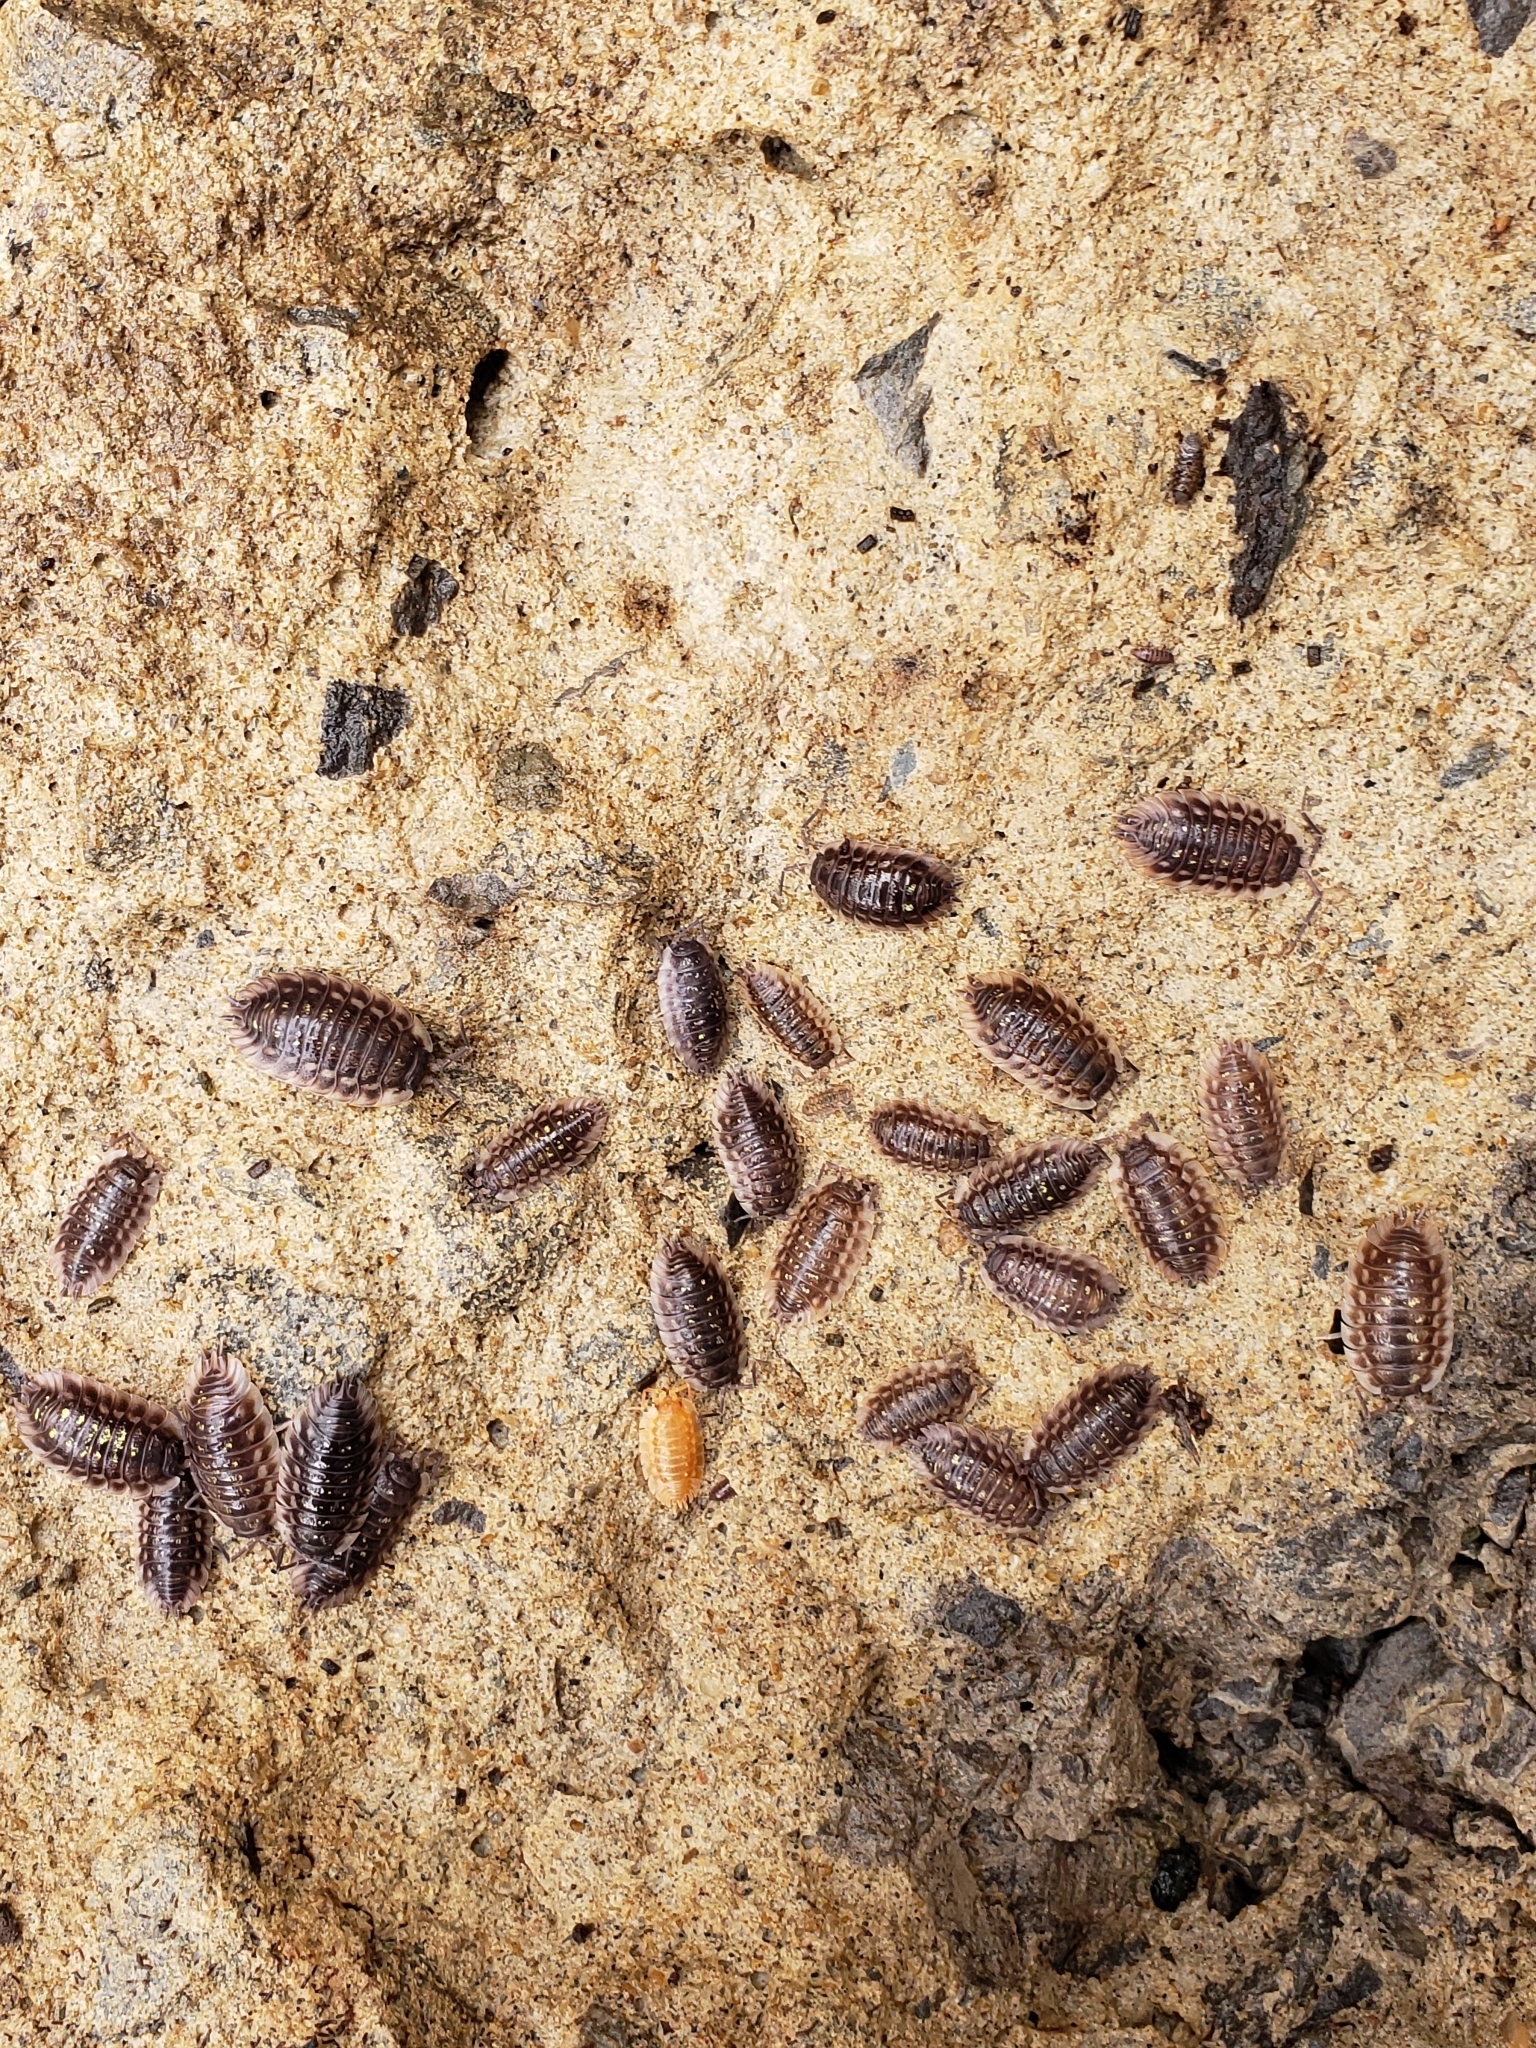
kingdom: Animalia
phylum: Arthropoda
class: Malacostraca
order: Isopoda
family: Oniscidae
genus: Oniscus
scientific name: Oniscus asellus
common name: Common shiny woodlouse
